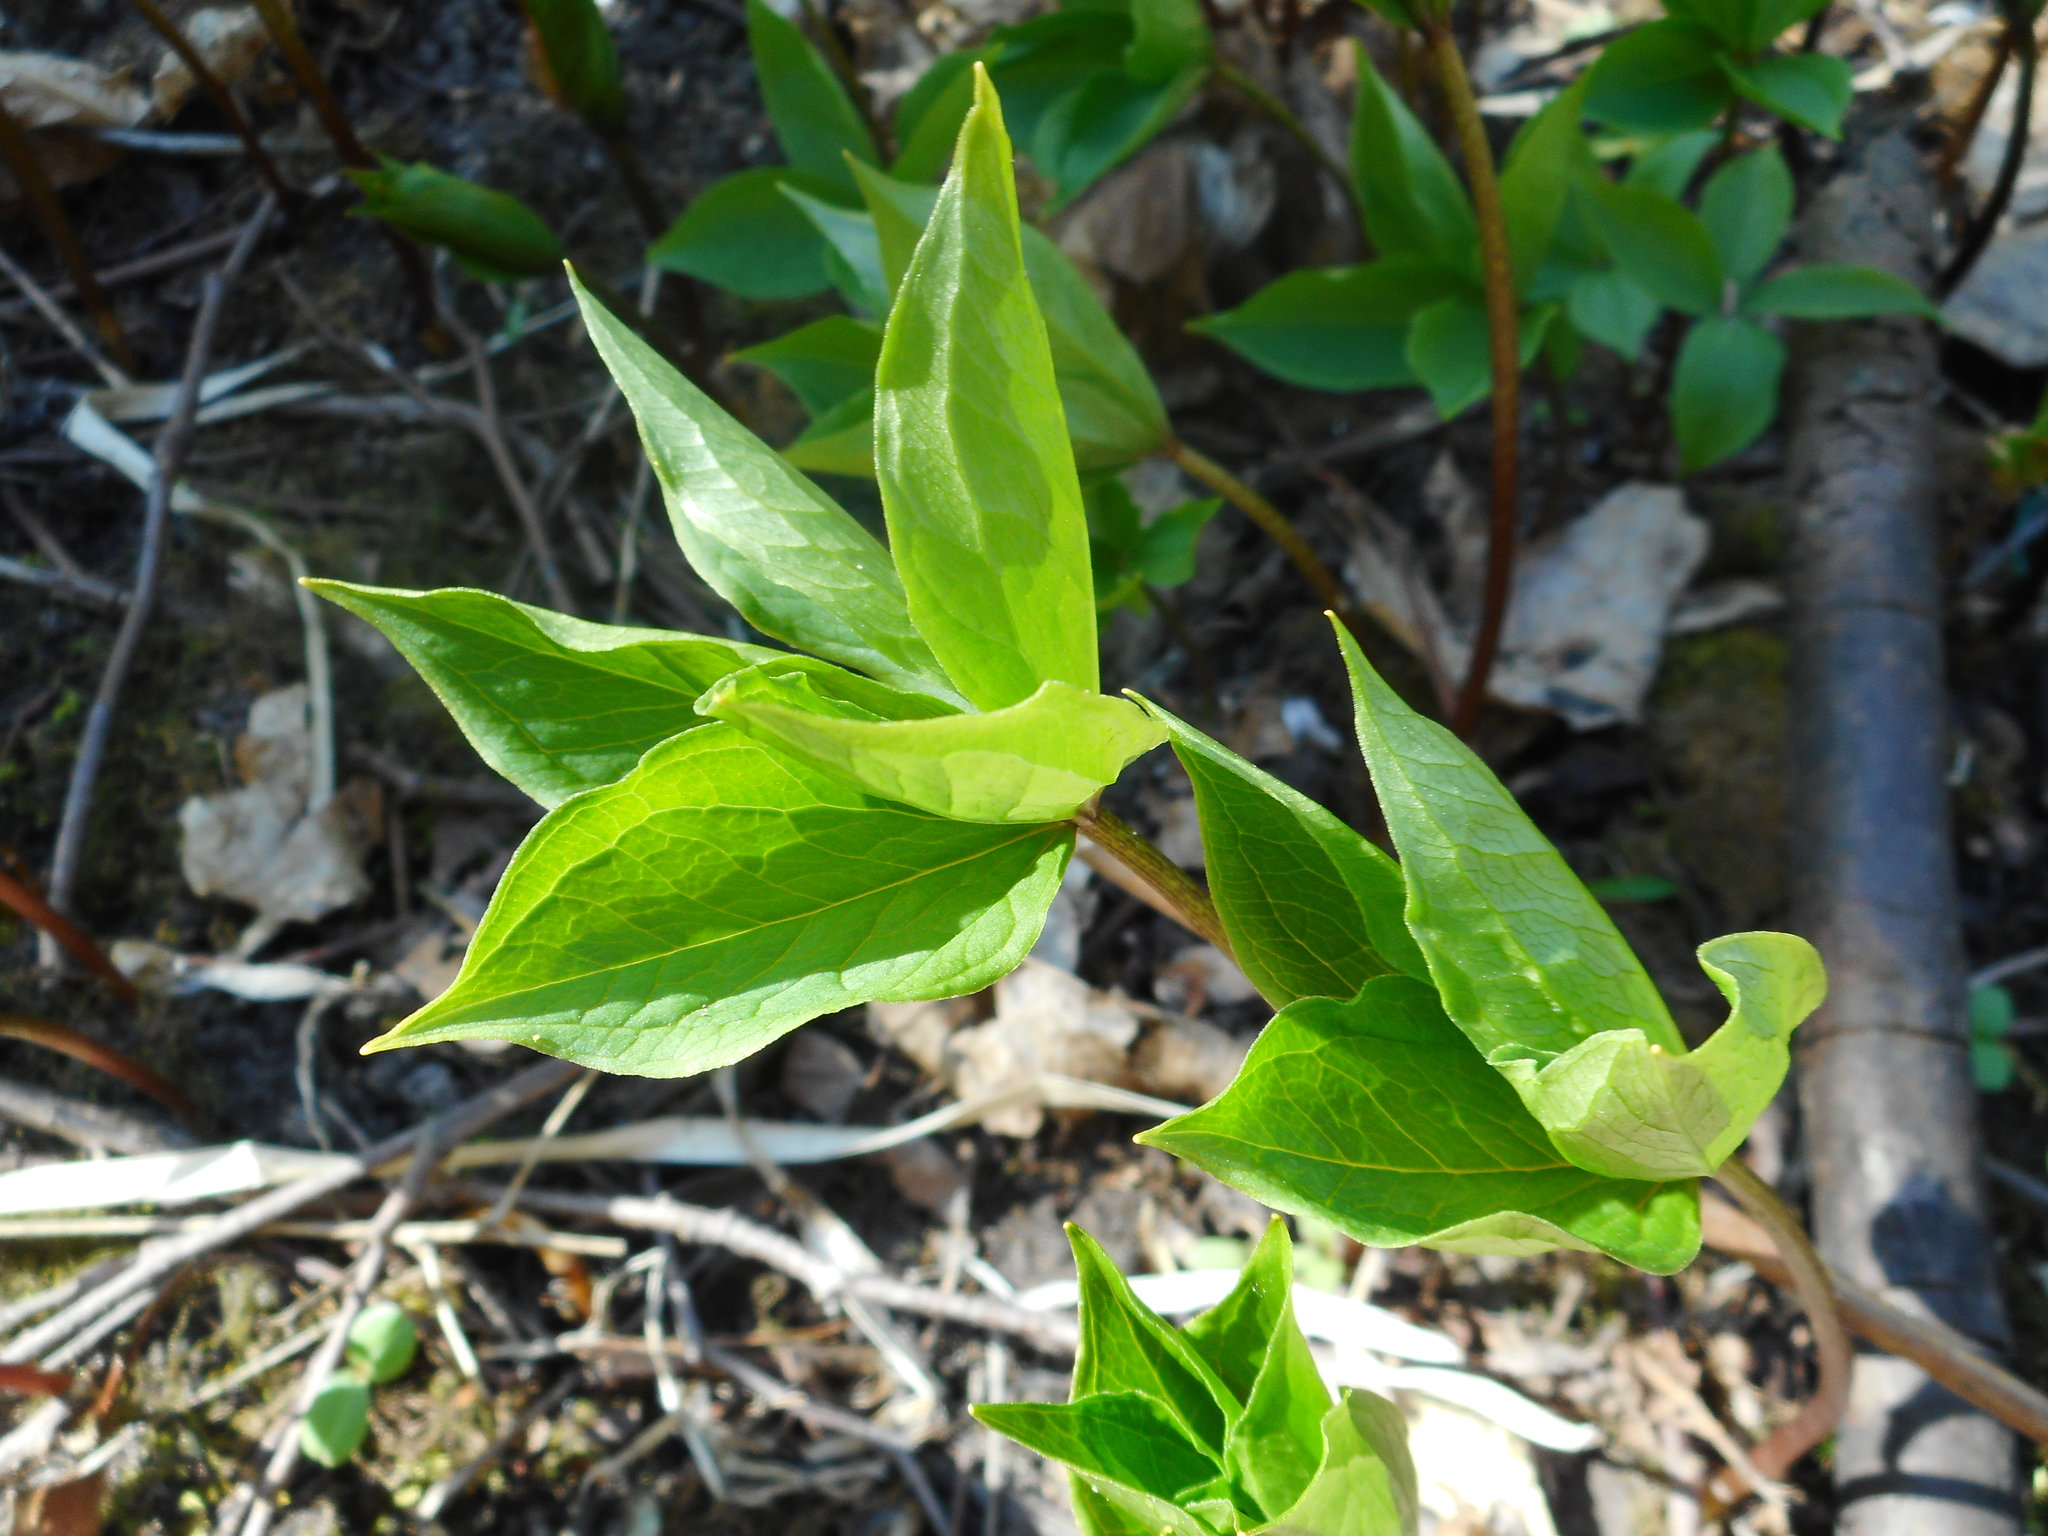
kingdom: Plantae
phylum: Tracheophyta
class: Liliopsida
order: Liliales
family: Melanthiaceae
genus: Paris
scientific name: Paris quadrifolia
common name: Herb-paris
